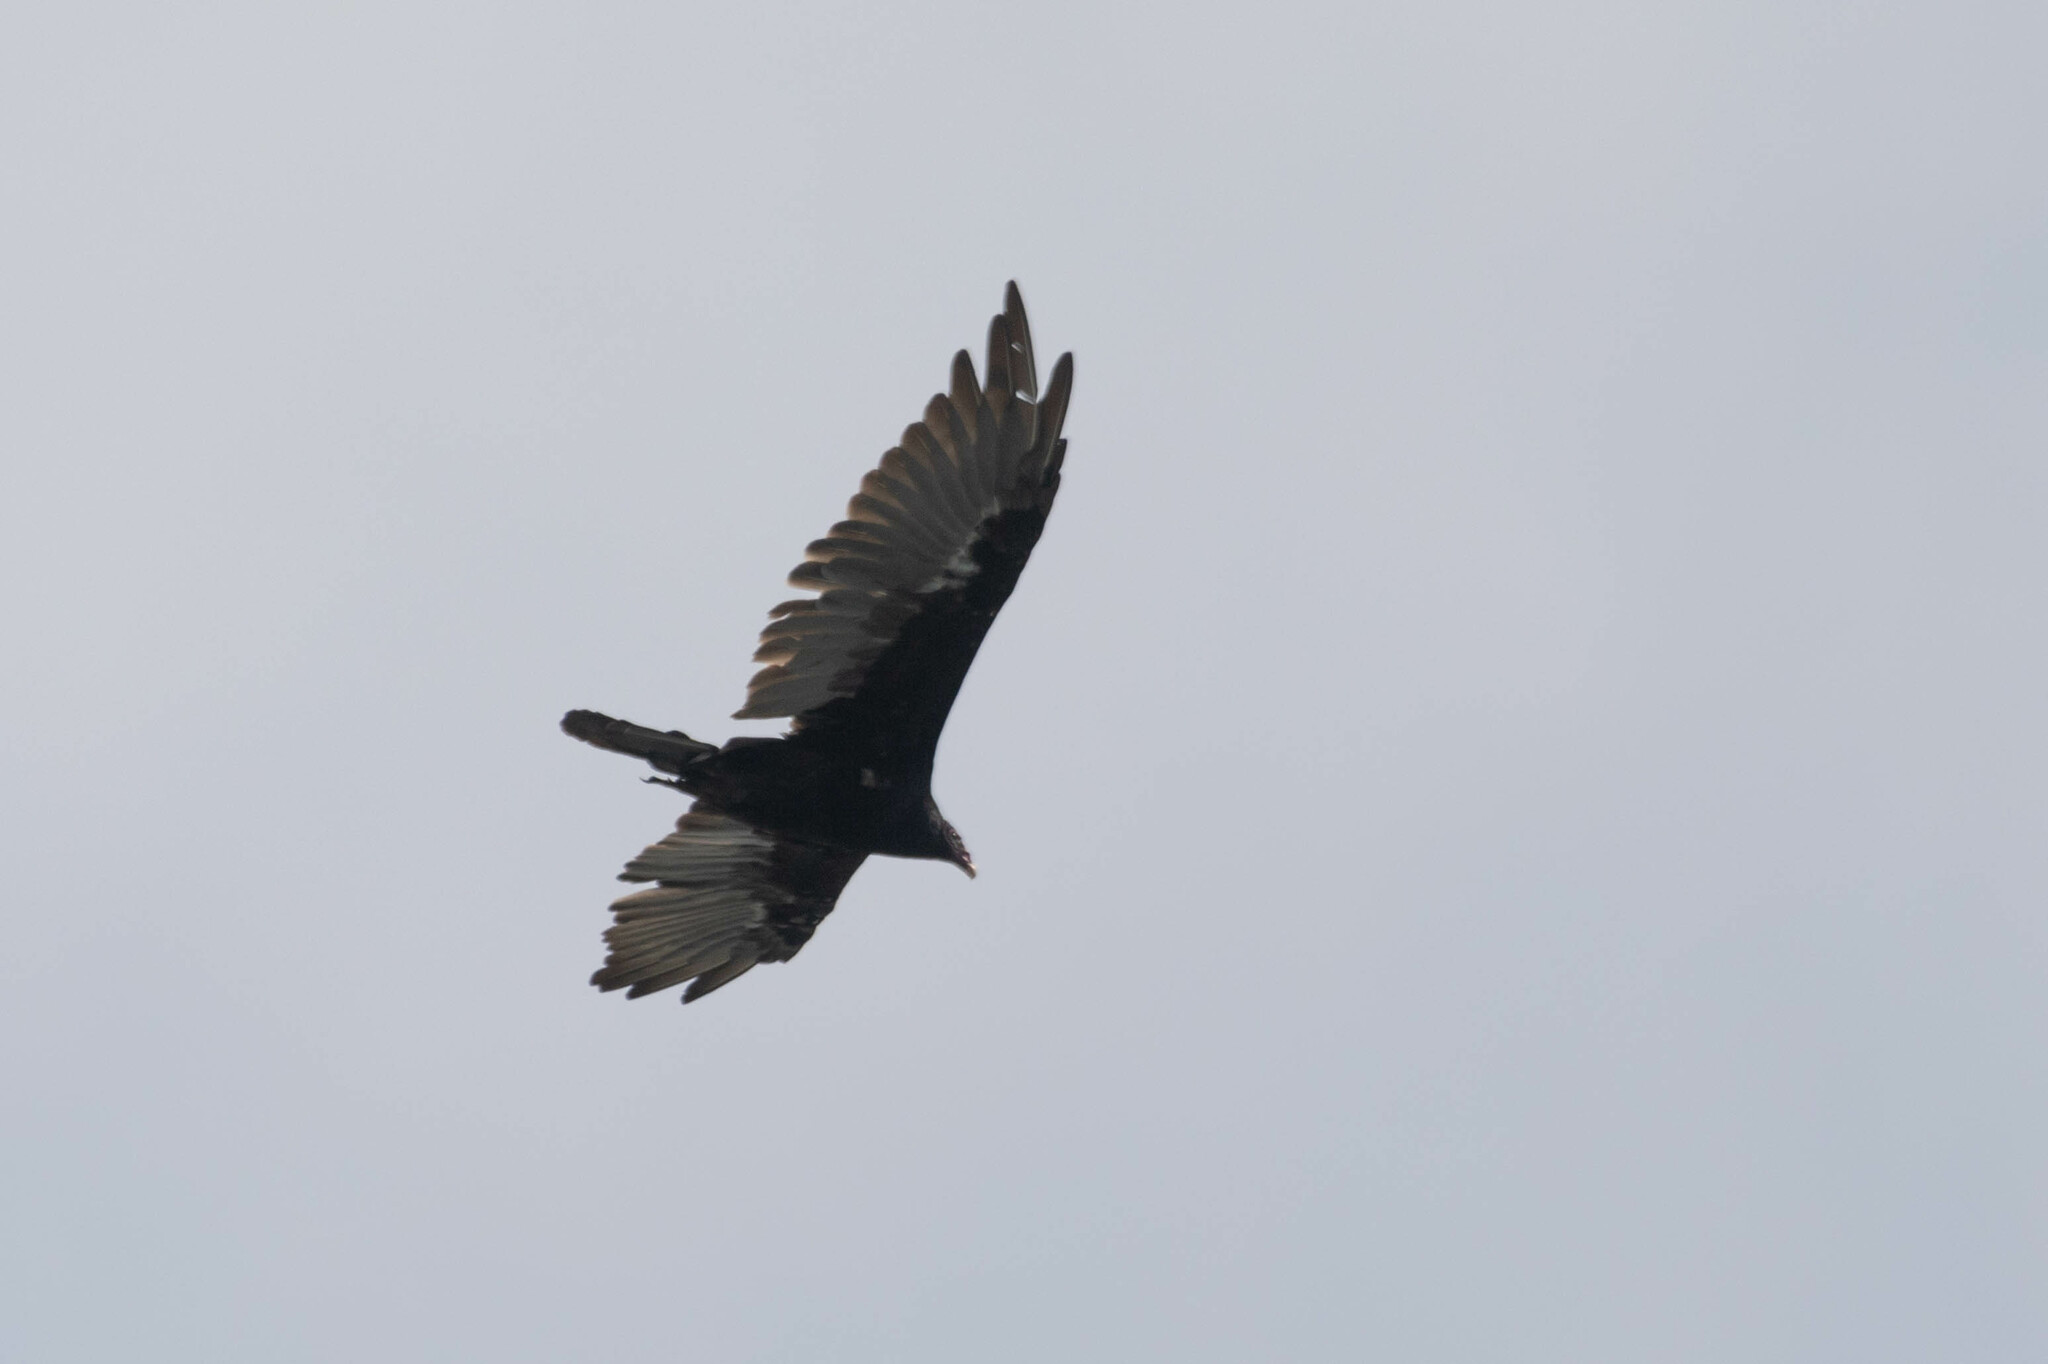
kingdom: Animalia
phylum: Chordata
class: Aves
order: Accipitriformes
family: Cathartidae
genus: Cathartes
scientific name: Cathartes aura
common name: Turkey vulture
